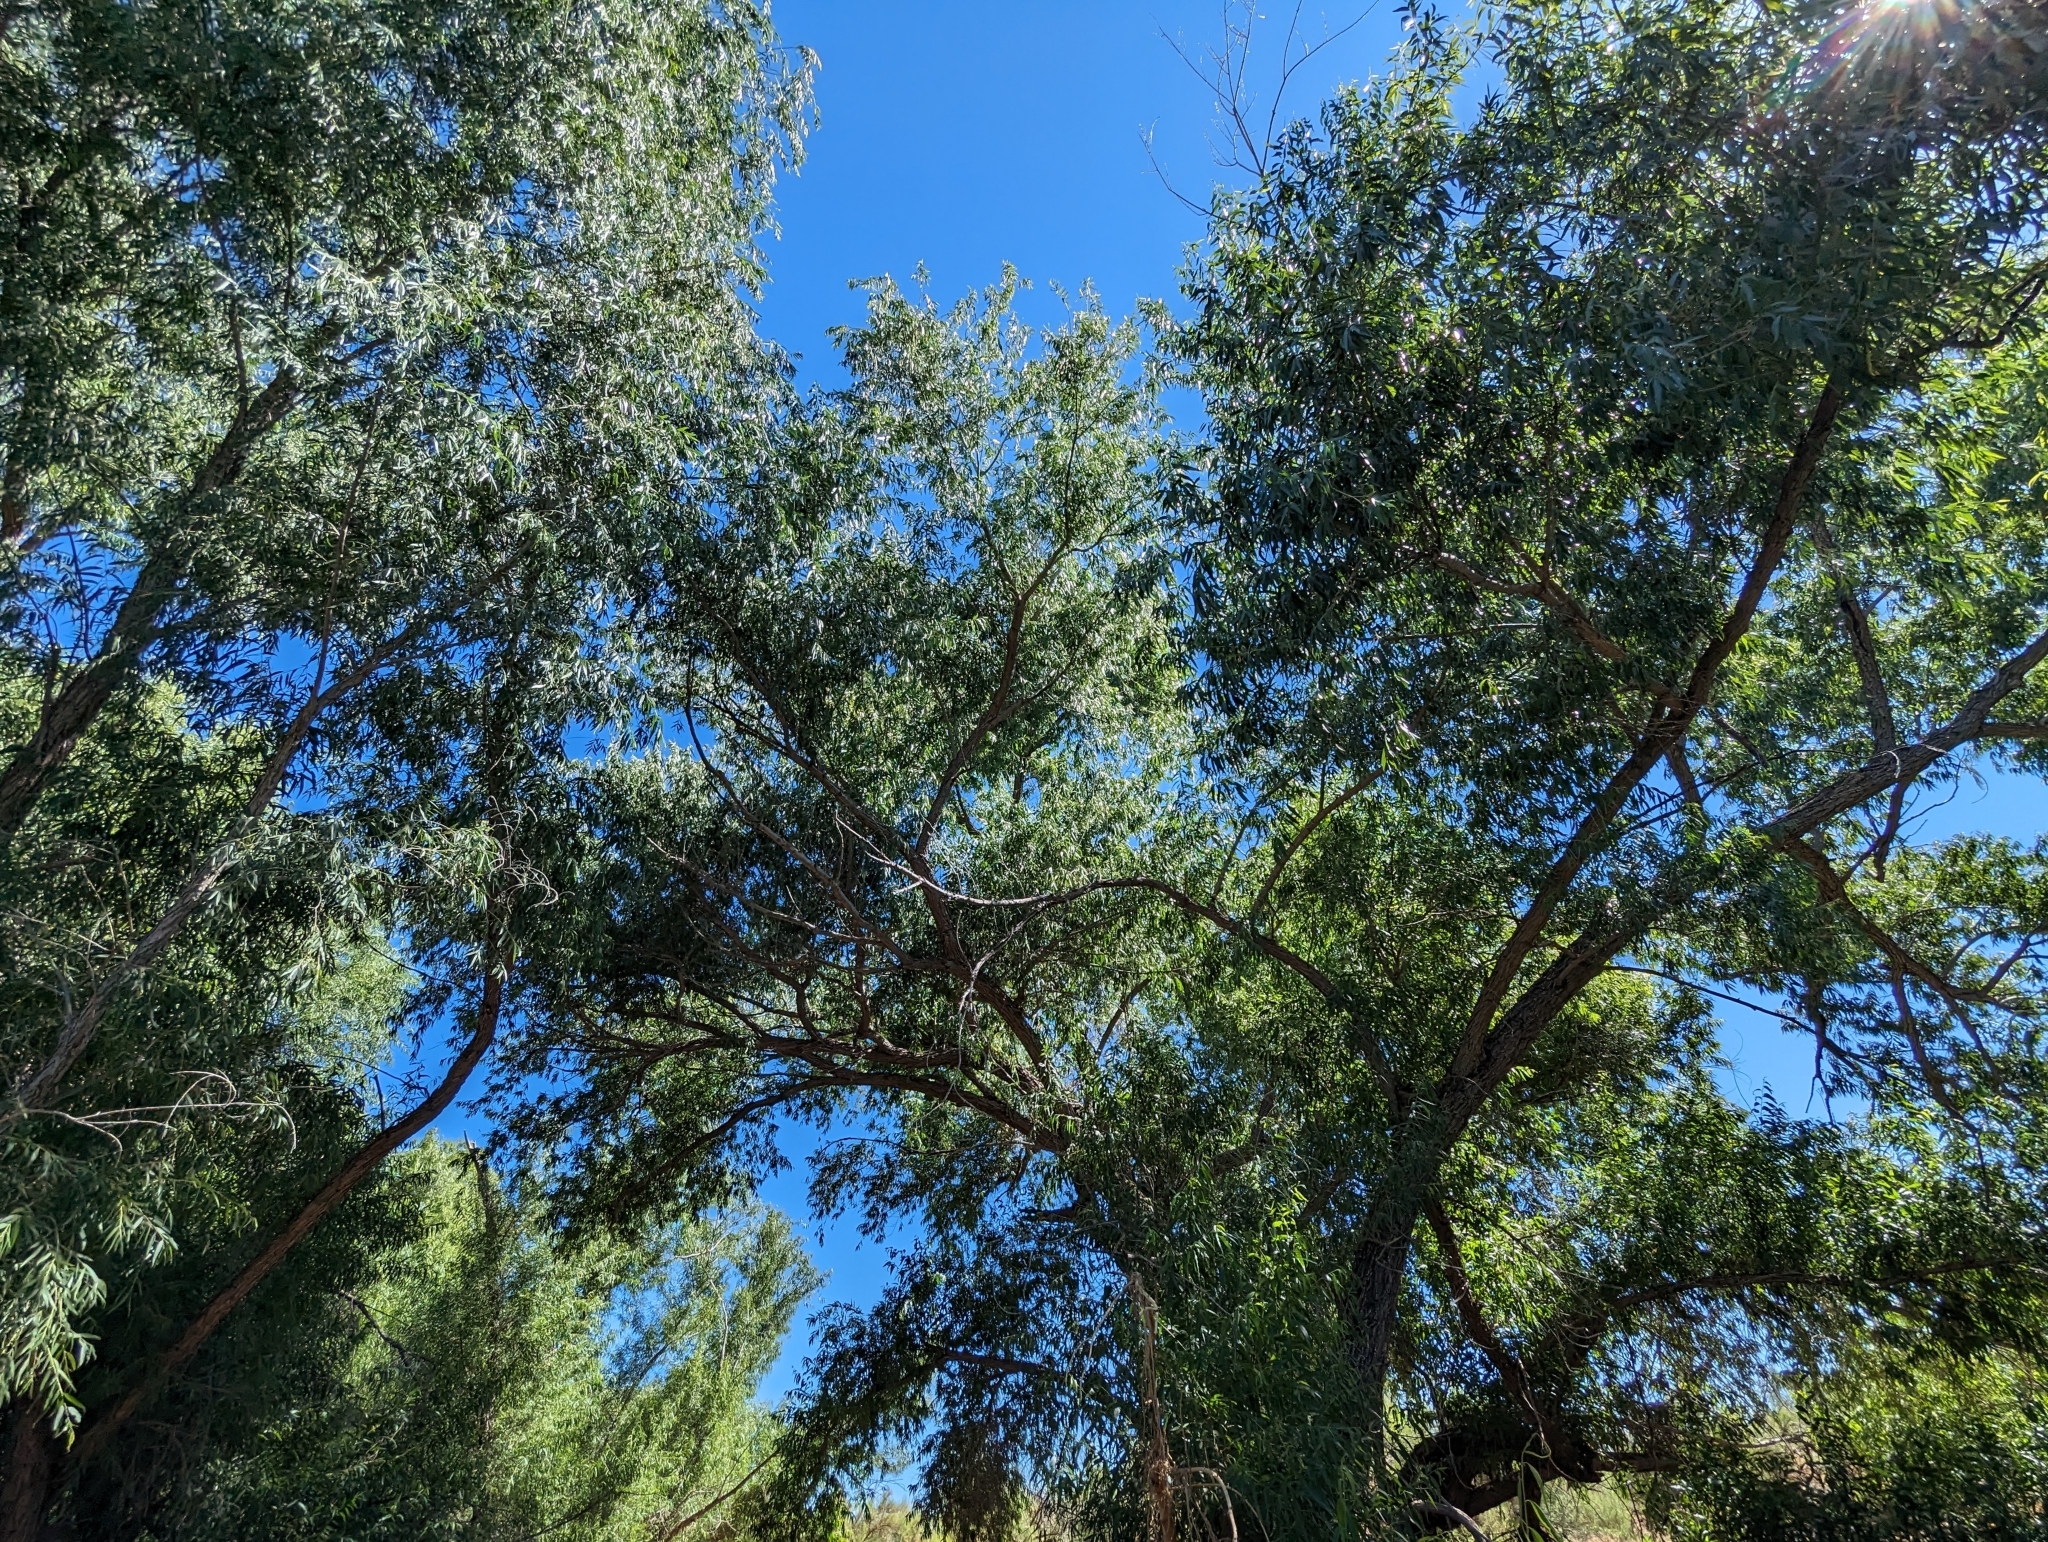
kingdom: Plantae
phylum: Tracheophyta
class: Magnoliopsida
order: Malpighiales
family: Salicaceae
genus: Salix
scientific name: Salix gooddingii
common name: Goodding's willow
